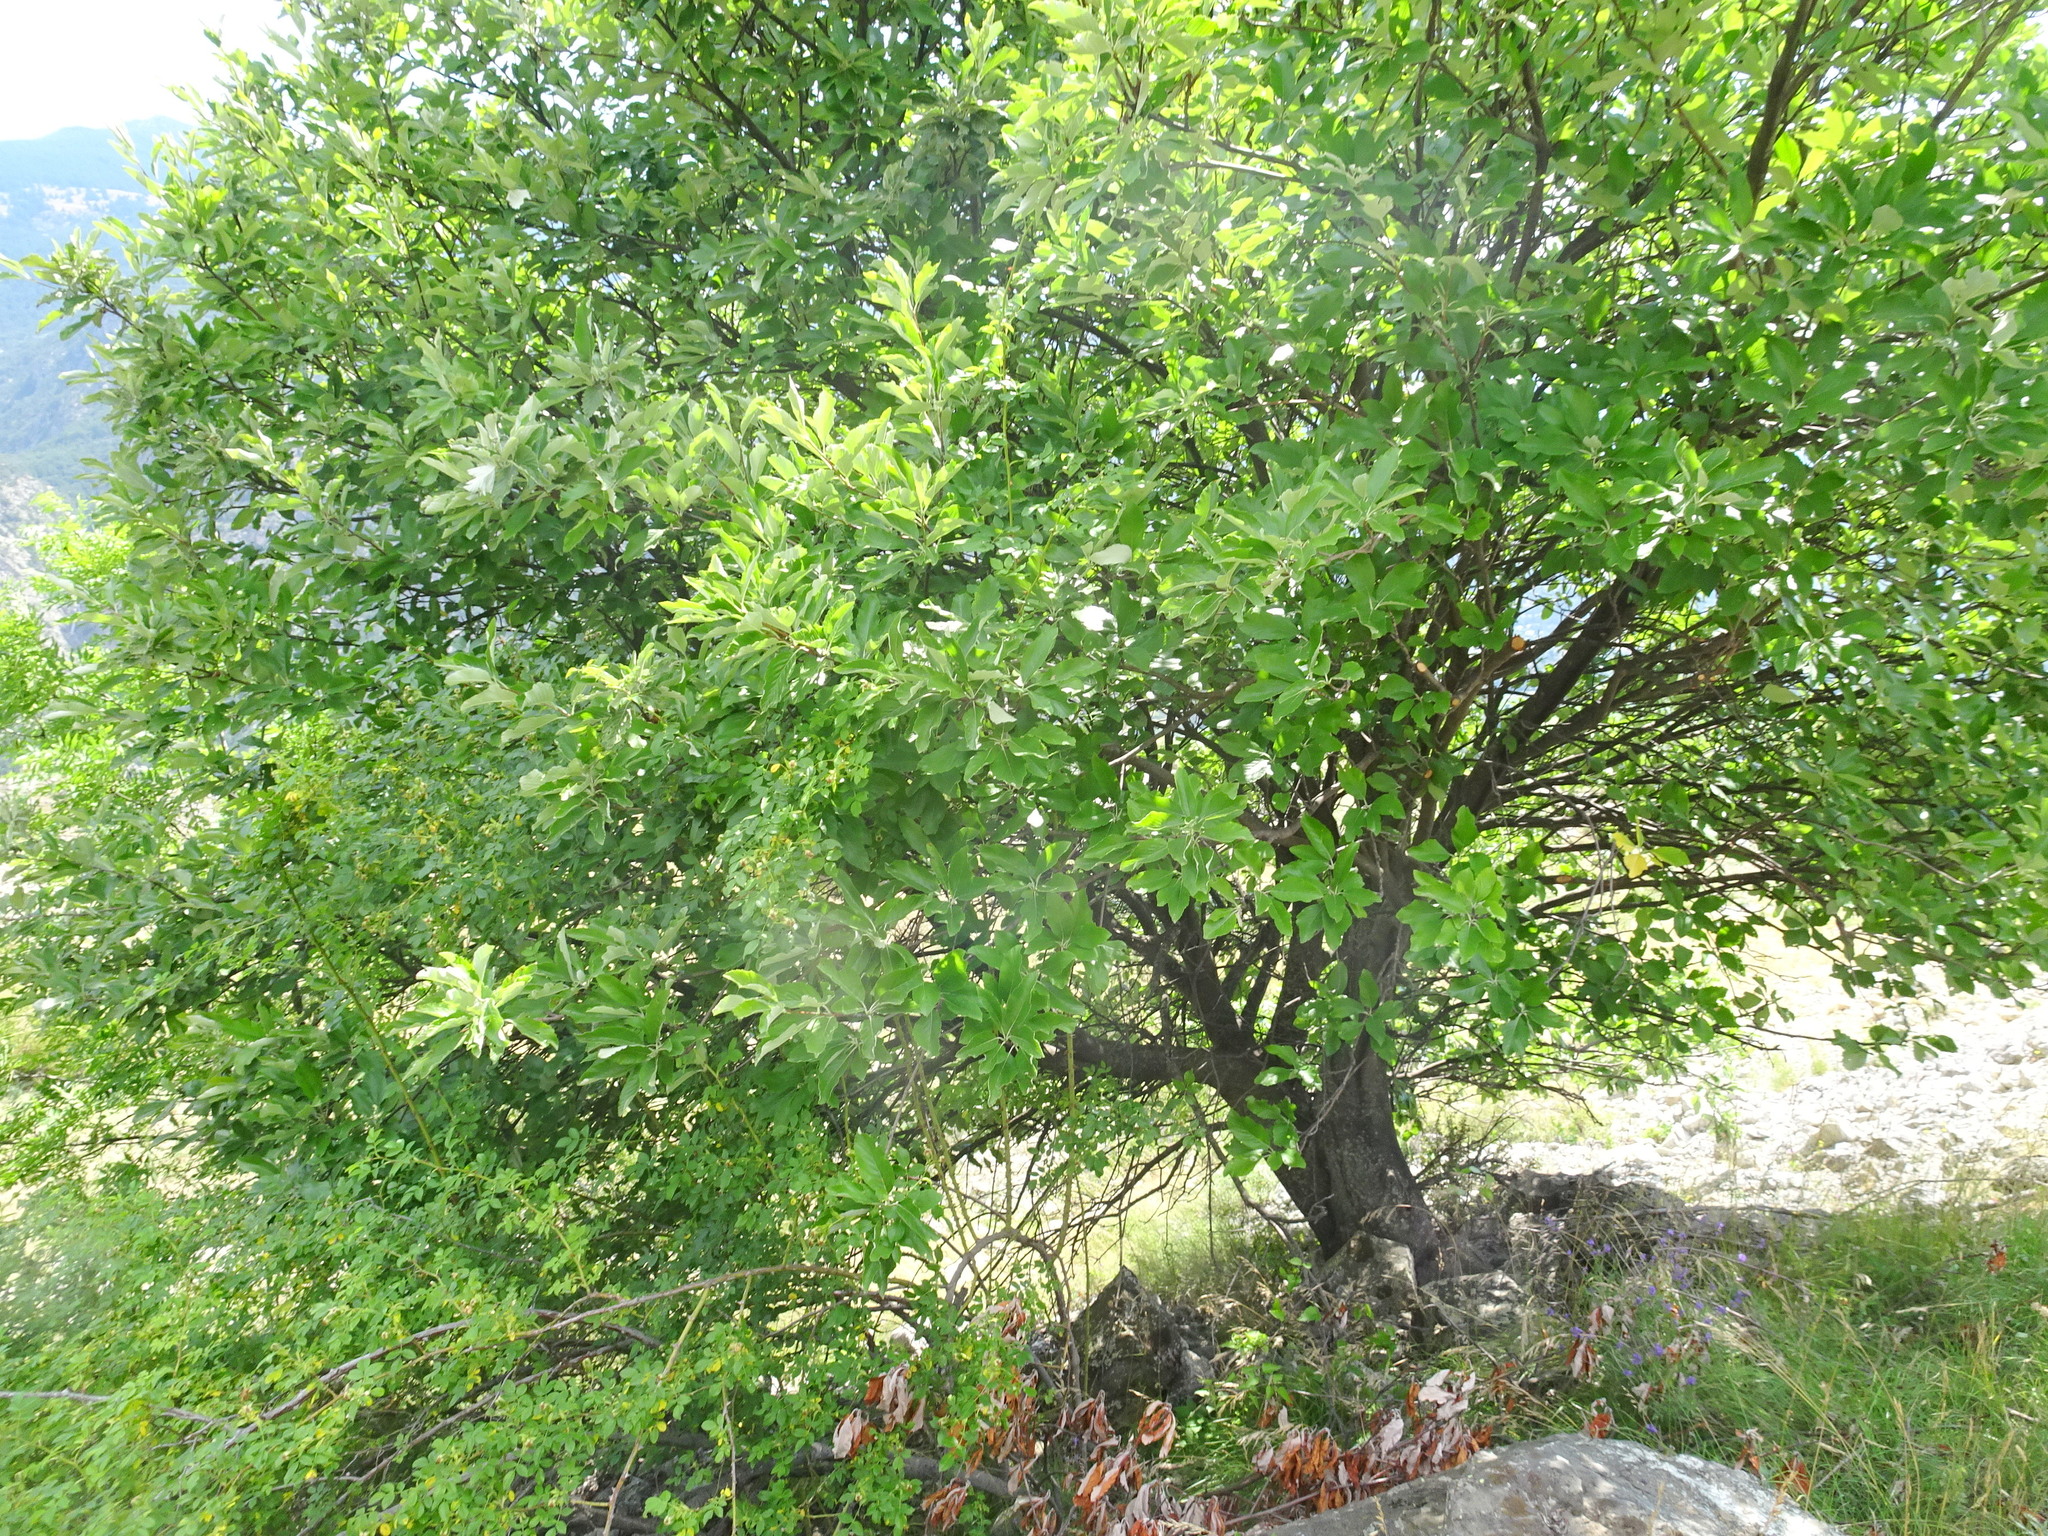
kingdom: Plantae
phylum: Tracheophyta
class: Magnoliopsida
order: Rosales
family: Rosaceae
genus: Aria
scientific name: Aria edulis
